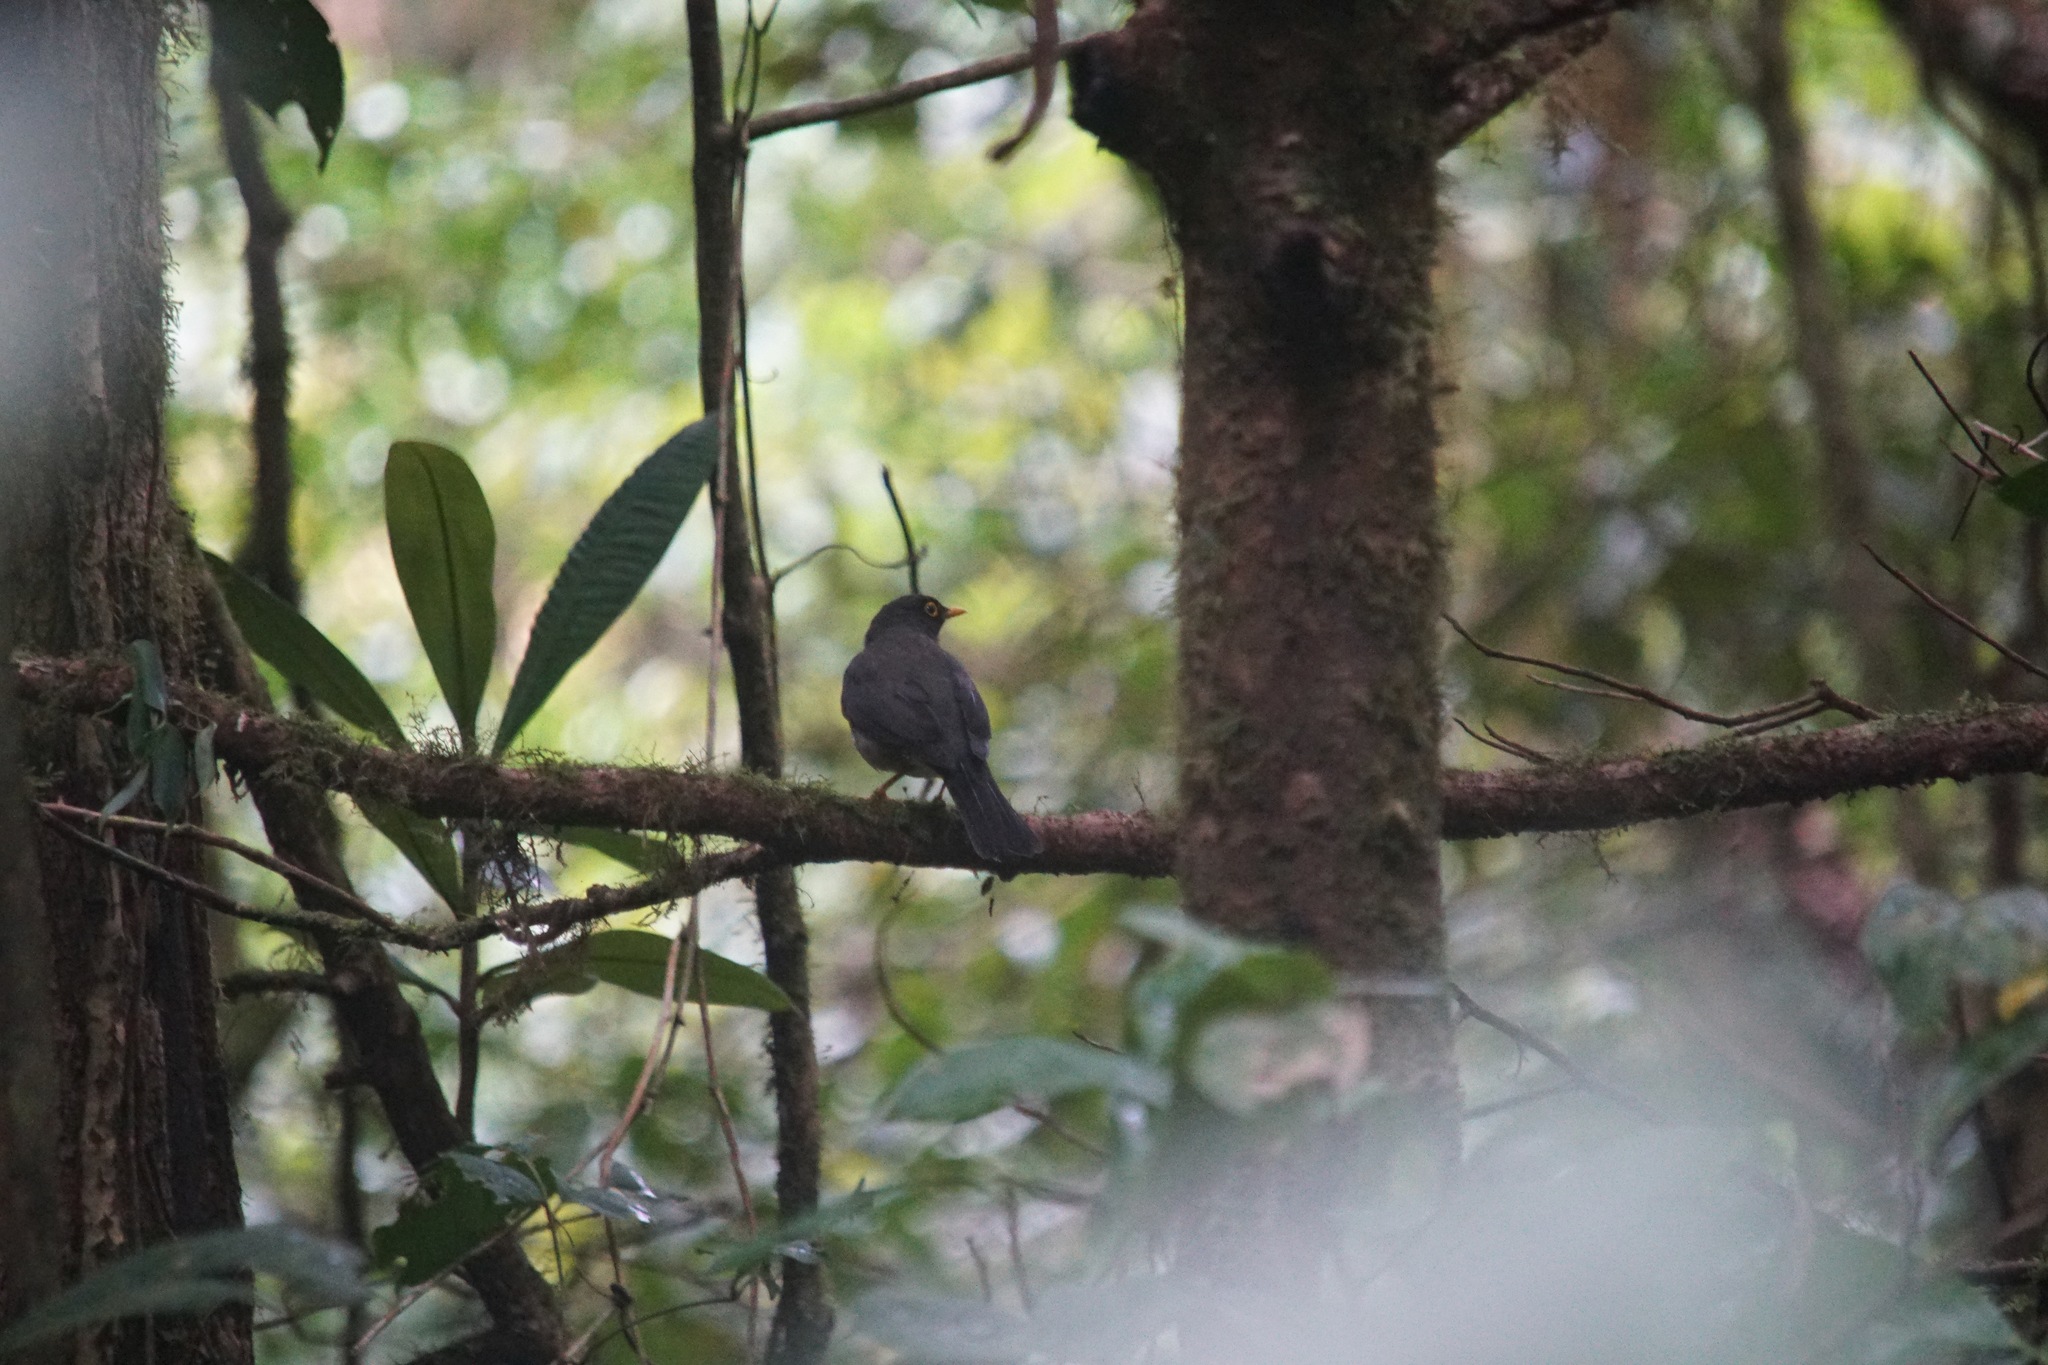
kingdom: Animalia
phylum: Chordata
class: Aves
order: Passeriformes
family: Turdidae
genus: Catharus
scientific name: Catharus mexicanus
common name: Black-headed nightingale-thrush
